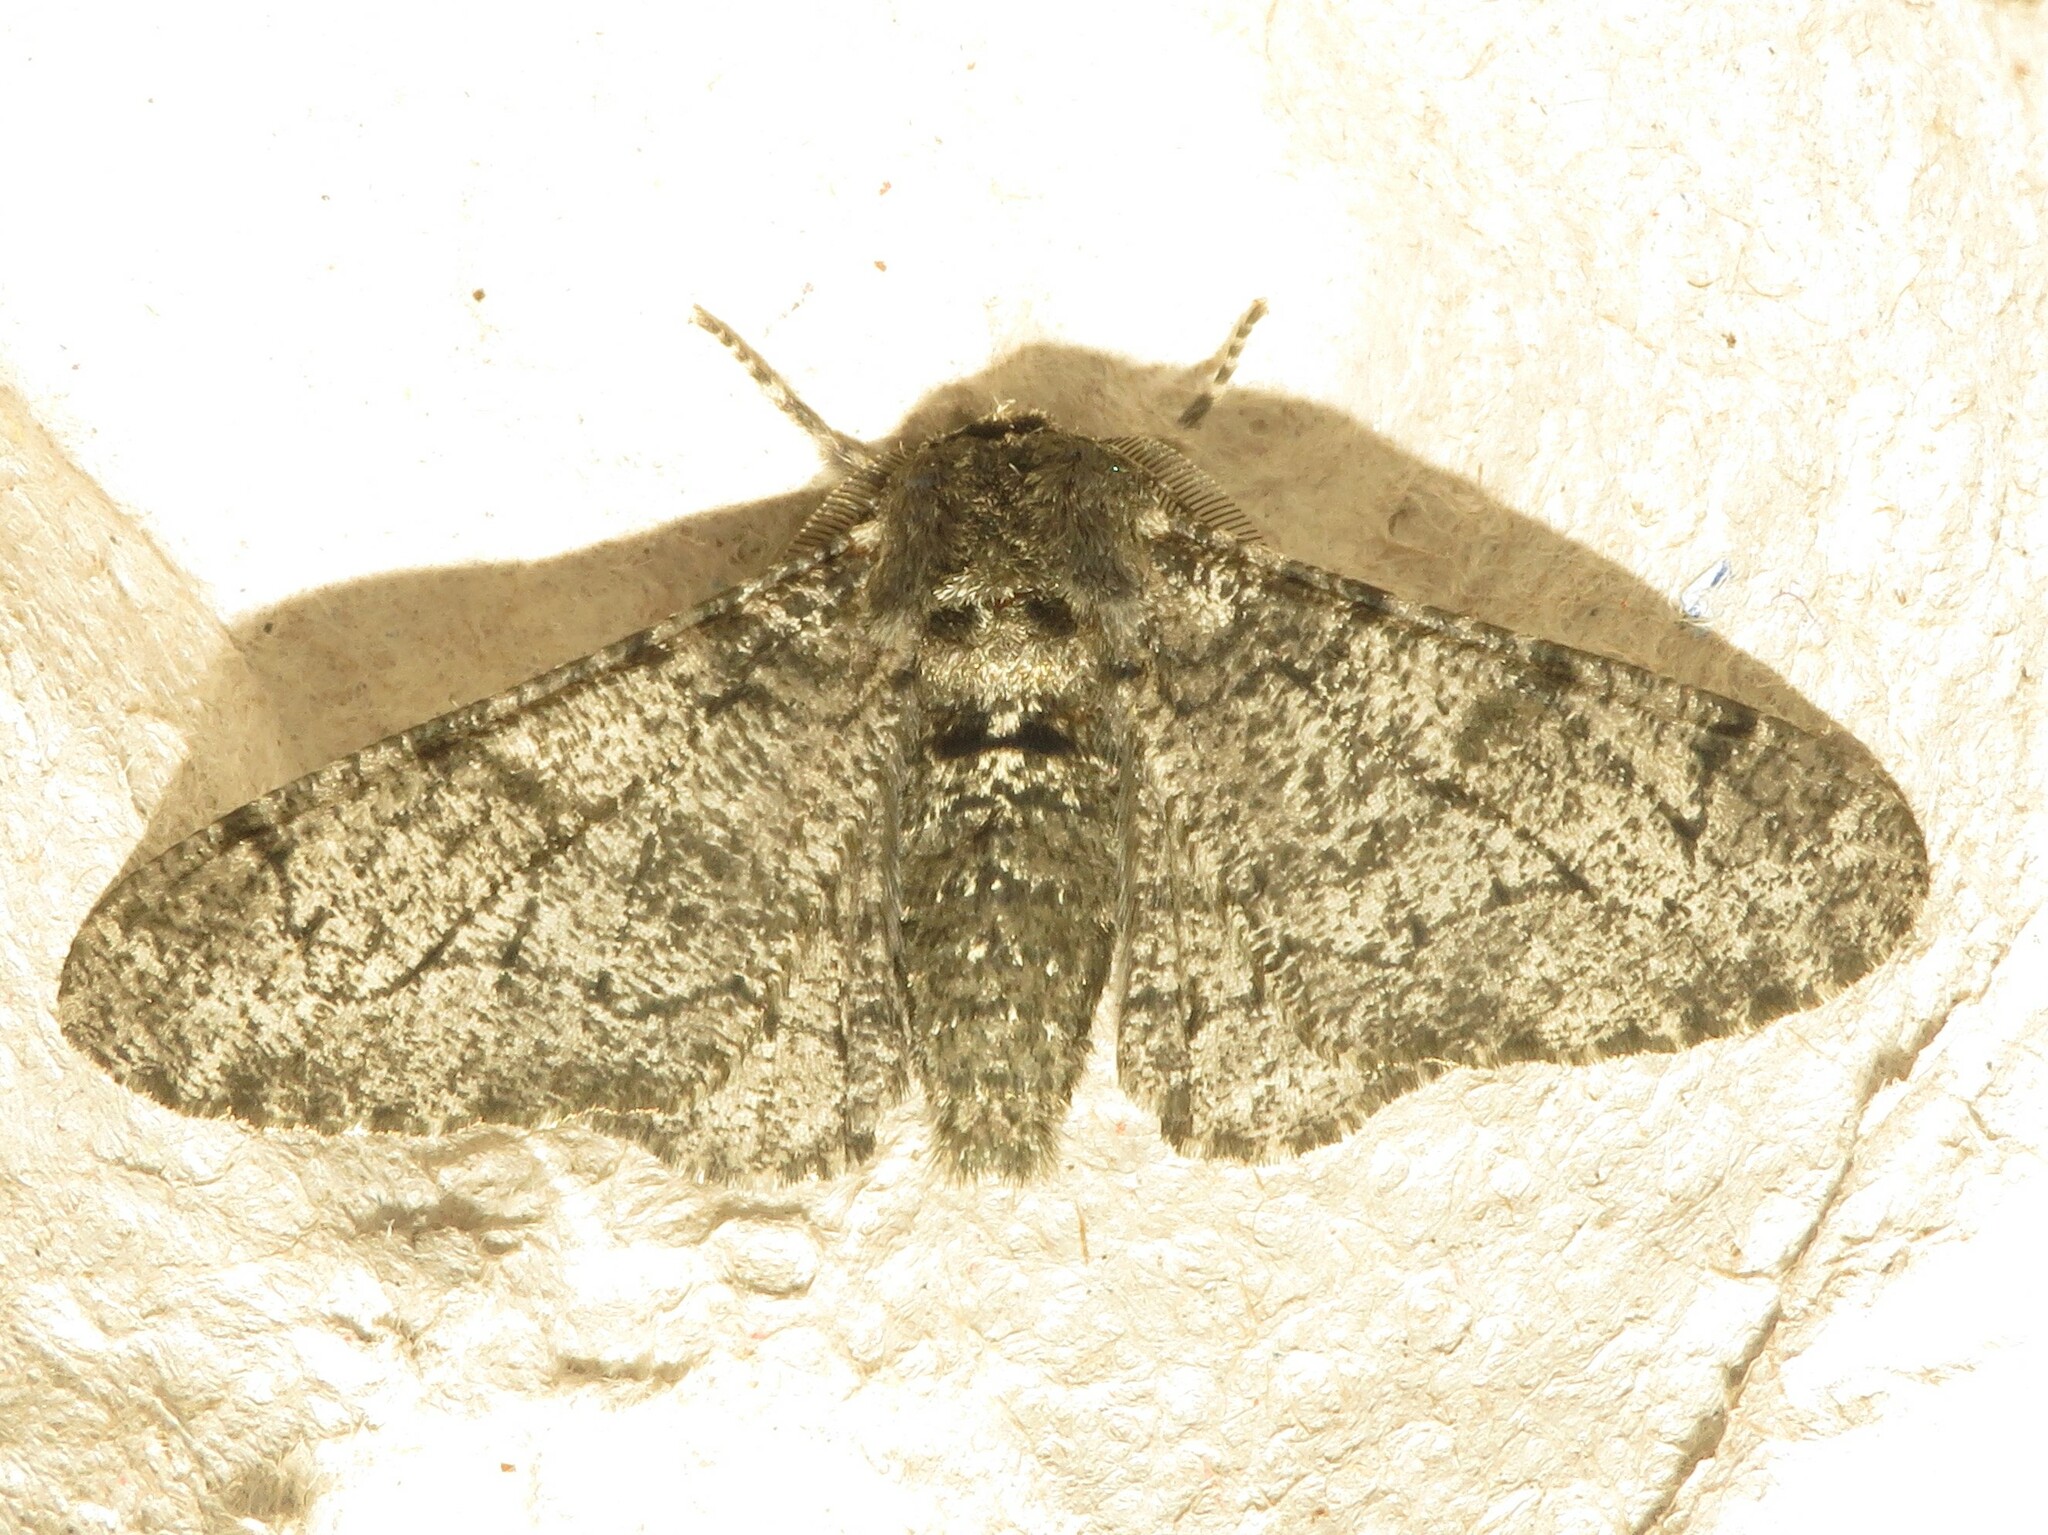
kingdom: Animalia
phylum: Arthropoda
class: Insecta
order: Lepidoptera
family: Geometridae
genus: Biston
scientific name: Biston betularia
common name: Peppered moth
